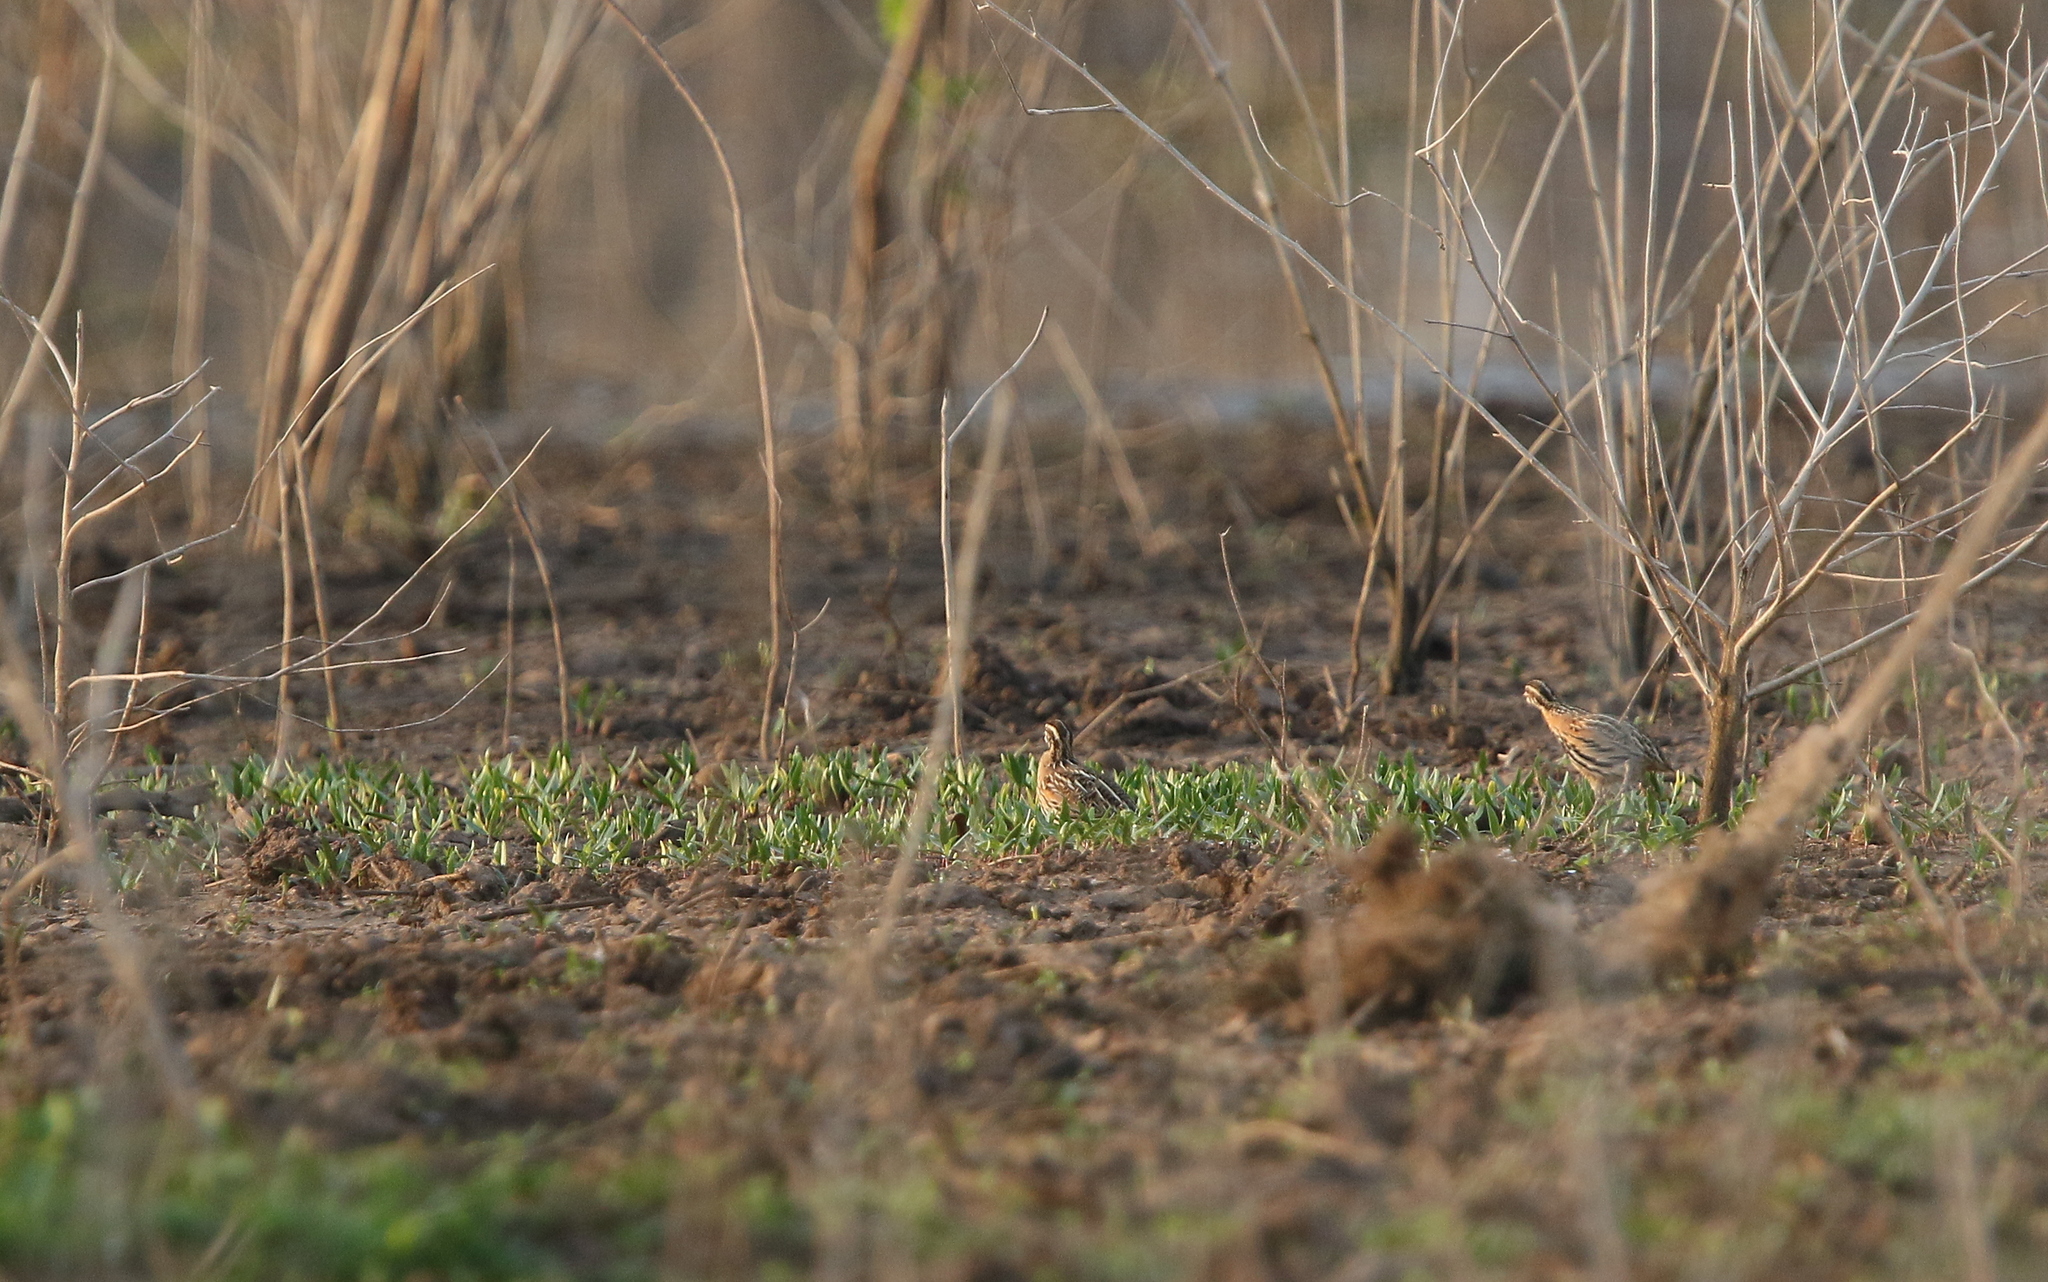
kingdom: Animalia
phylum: Chordata
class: Aves
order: Galliformes
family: Phasianidae
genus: Coturnix
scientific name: Coturnix coromandelica
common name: Rain quail
